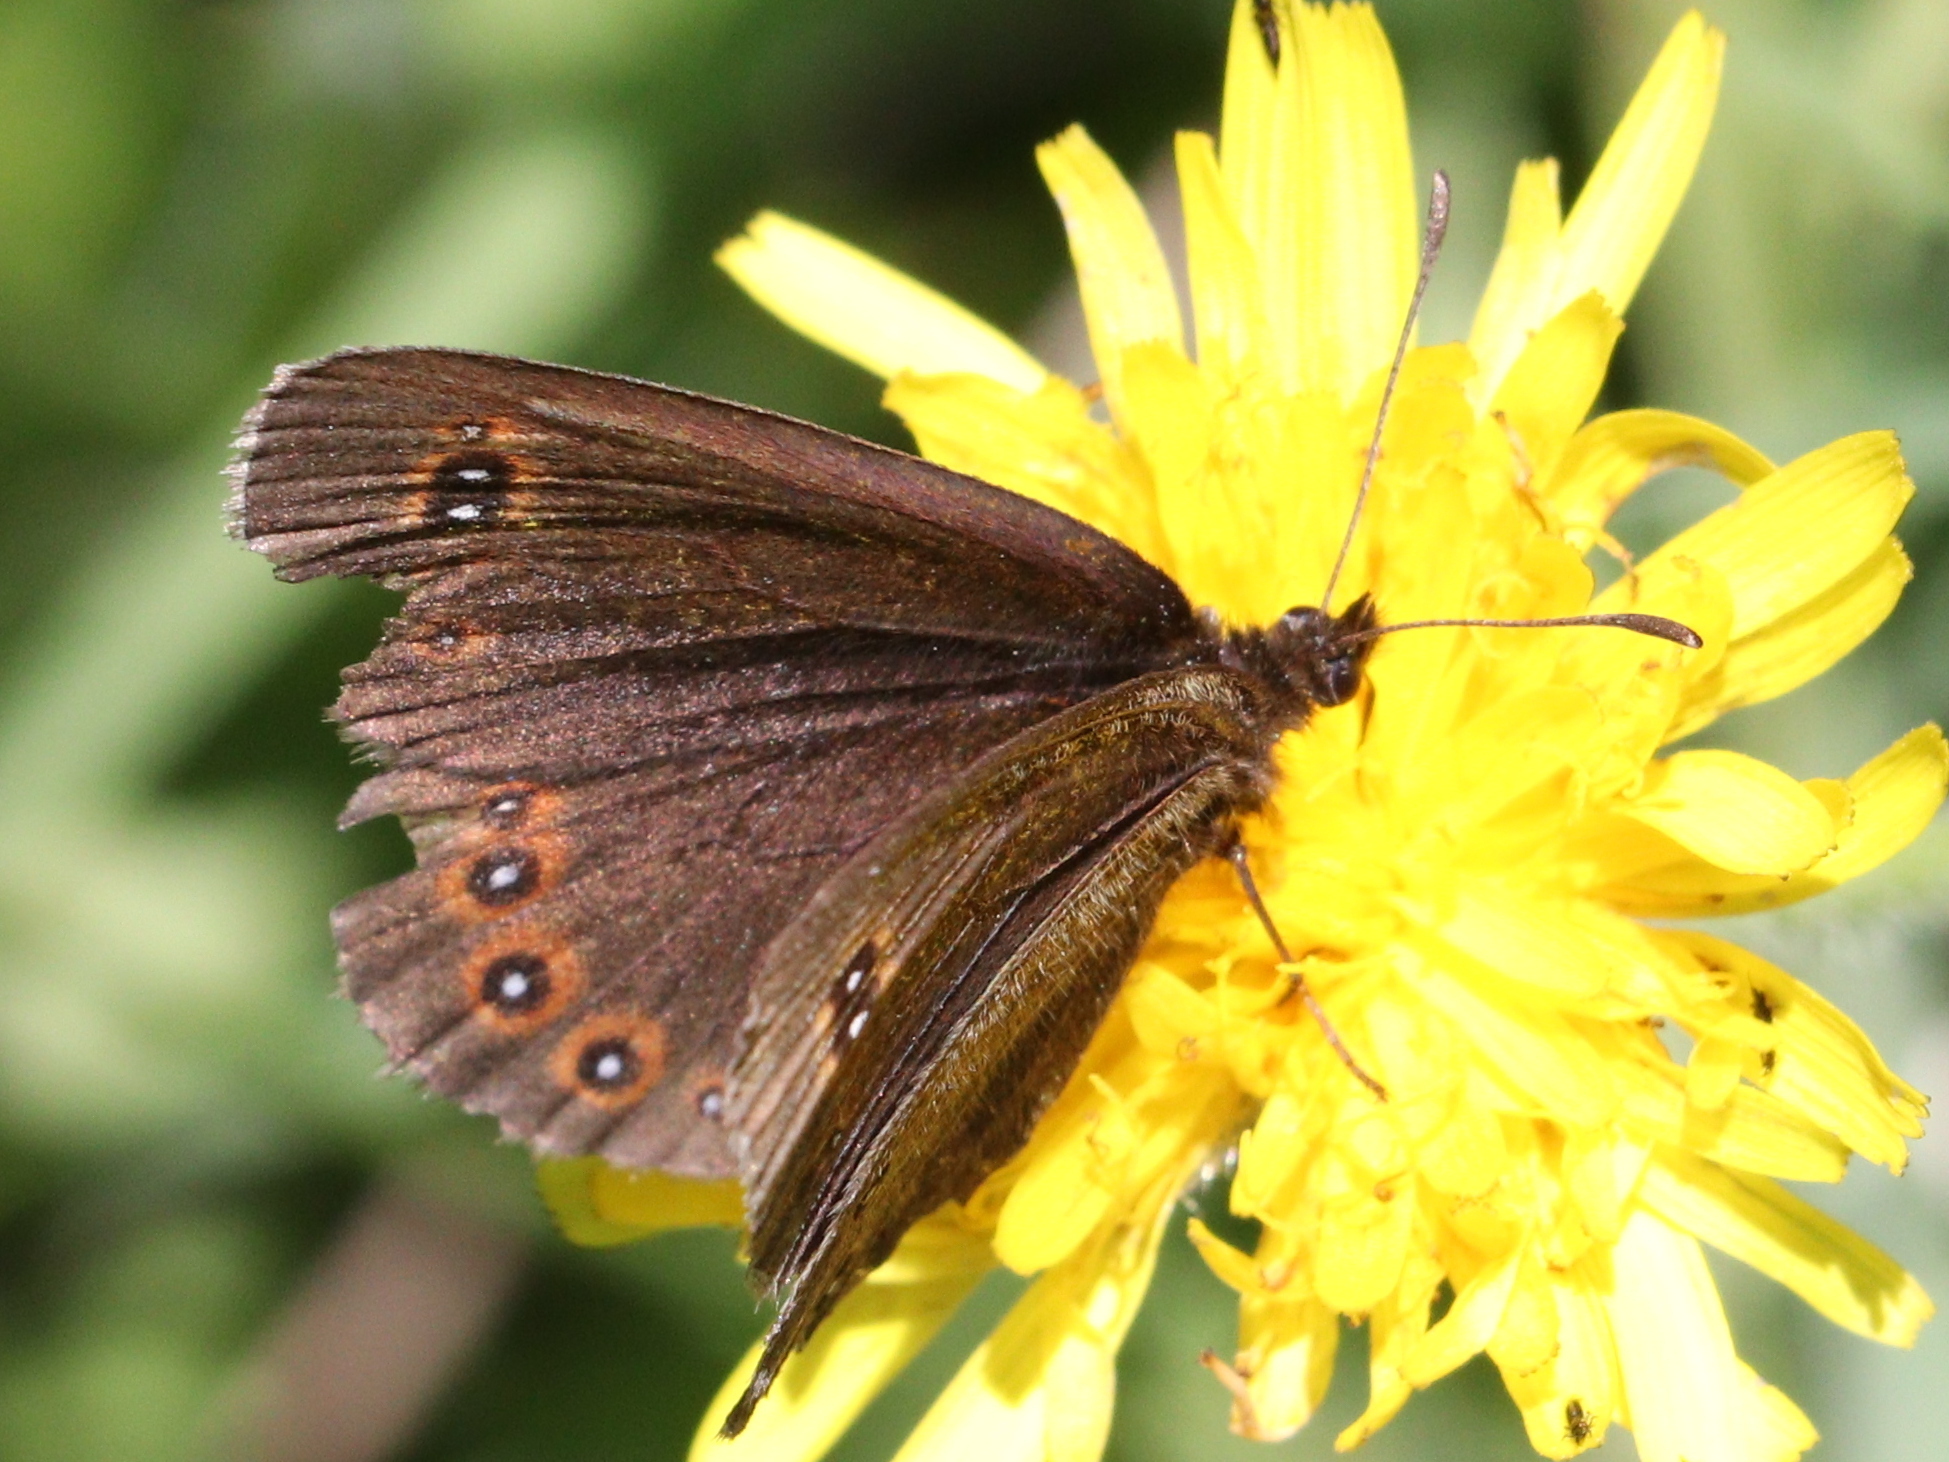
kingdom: Animalia
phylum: Arthropoda
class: Insecta
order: Lepidoptera
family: Nymphalidae
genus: Erebia
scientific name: Erebia oeme
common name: Bright-eyed ringlet
